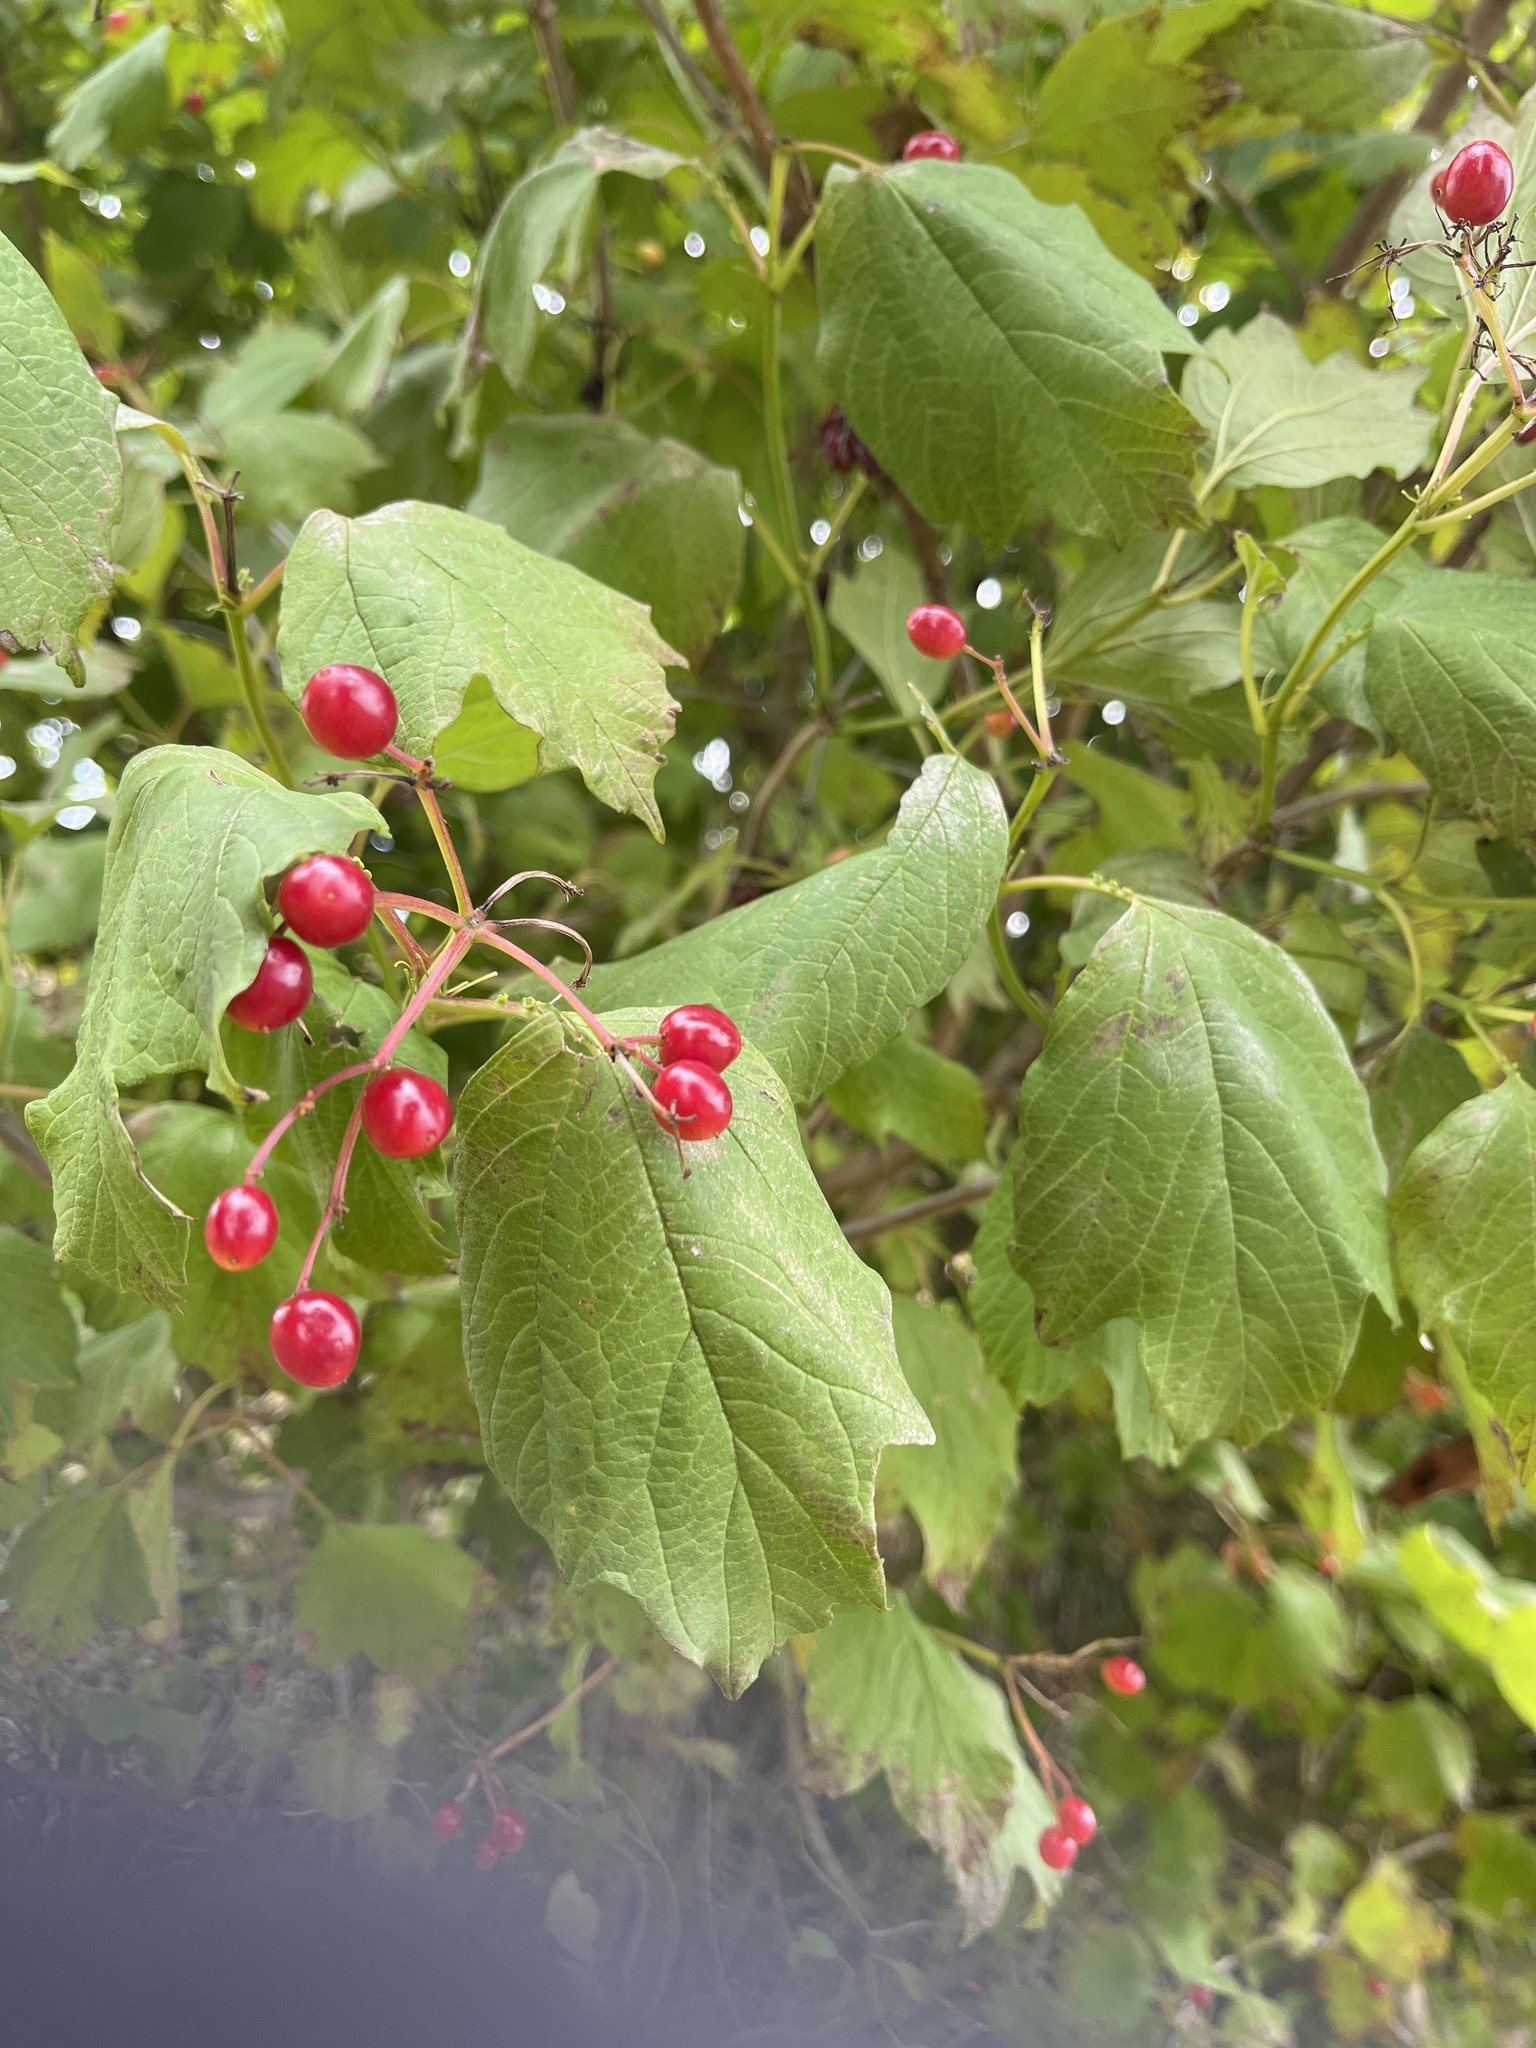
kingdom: Plantae
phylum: Tracheophyta
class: Magnoliopsida
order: Dipsacales
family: Viburnaceae
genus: Viburnum
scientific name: Viburnum opulus
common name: Guelder-rose
